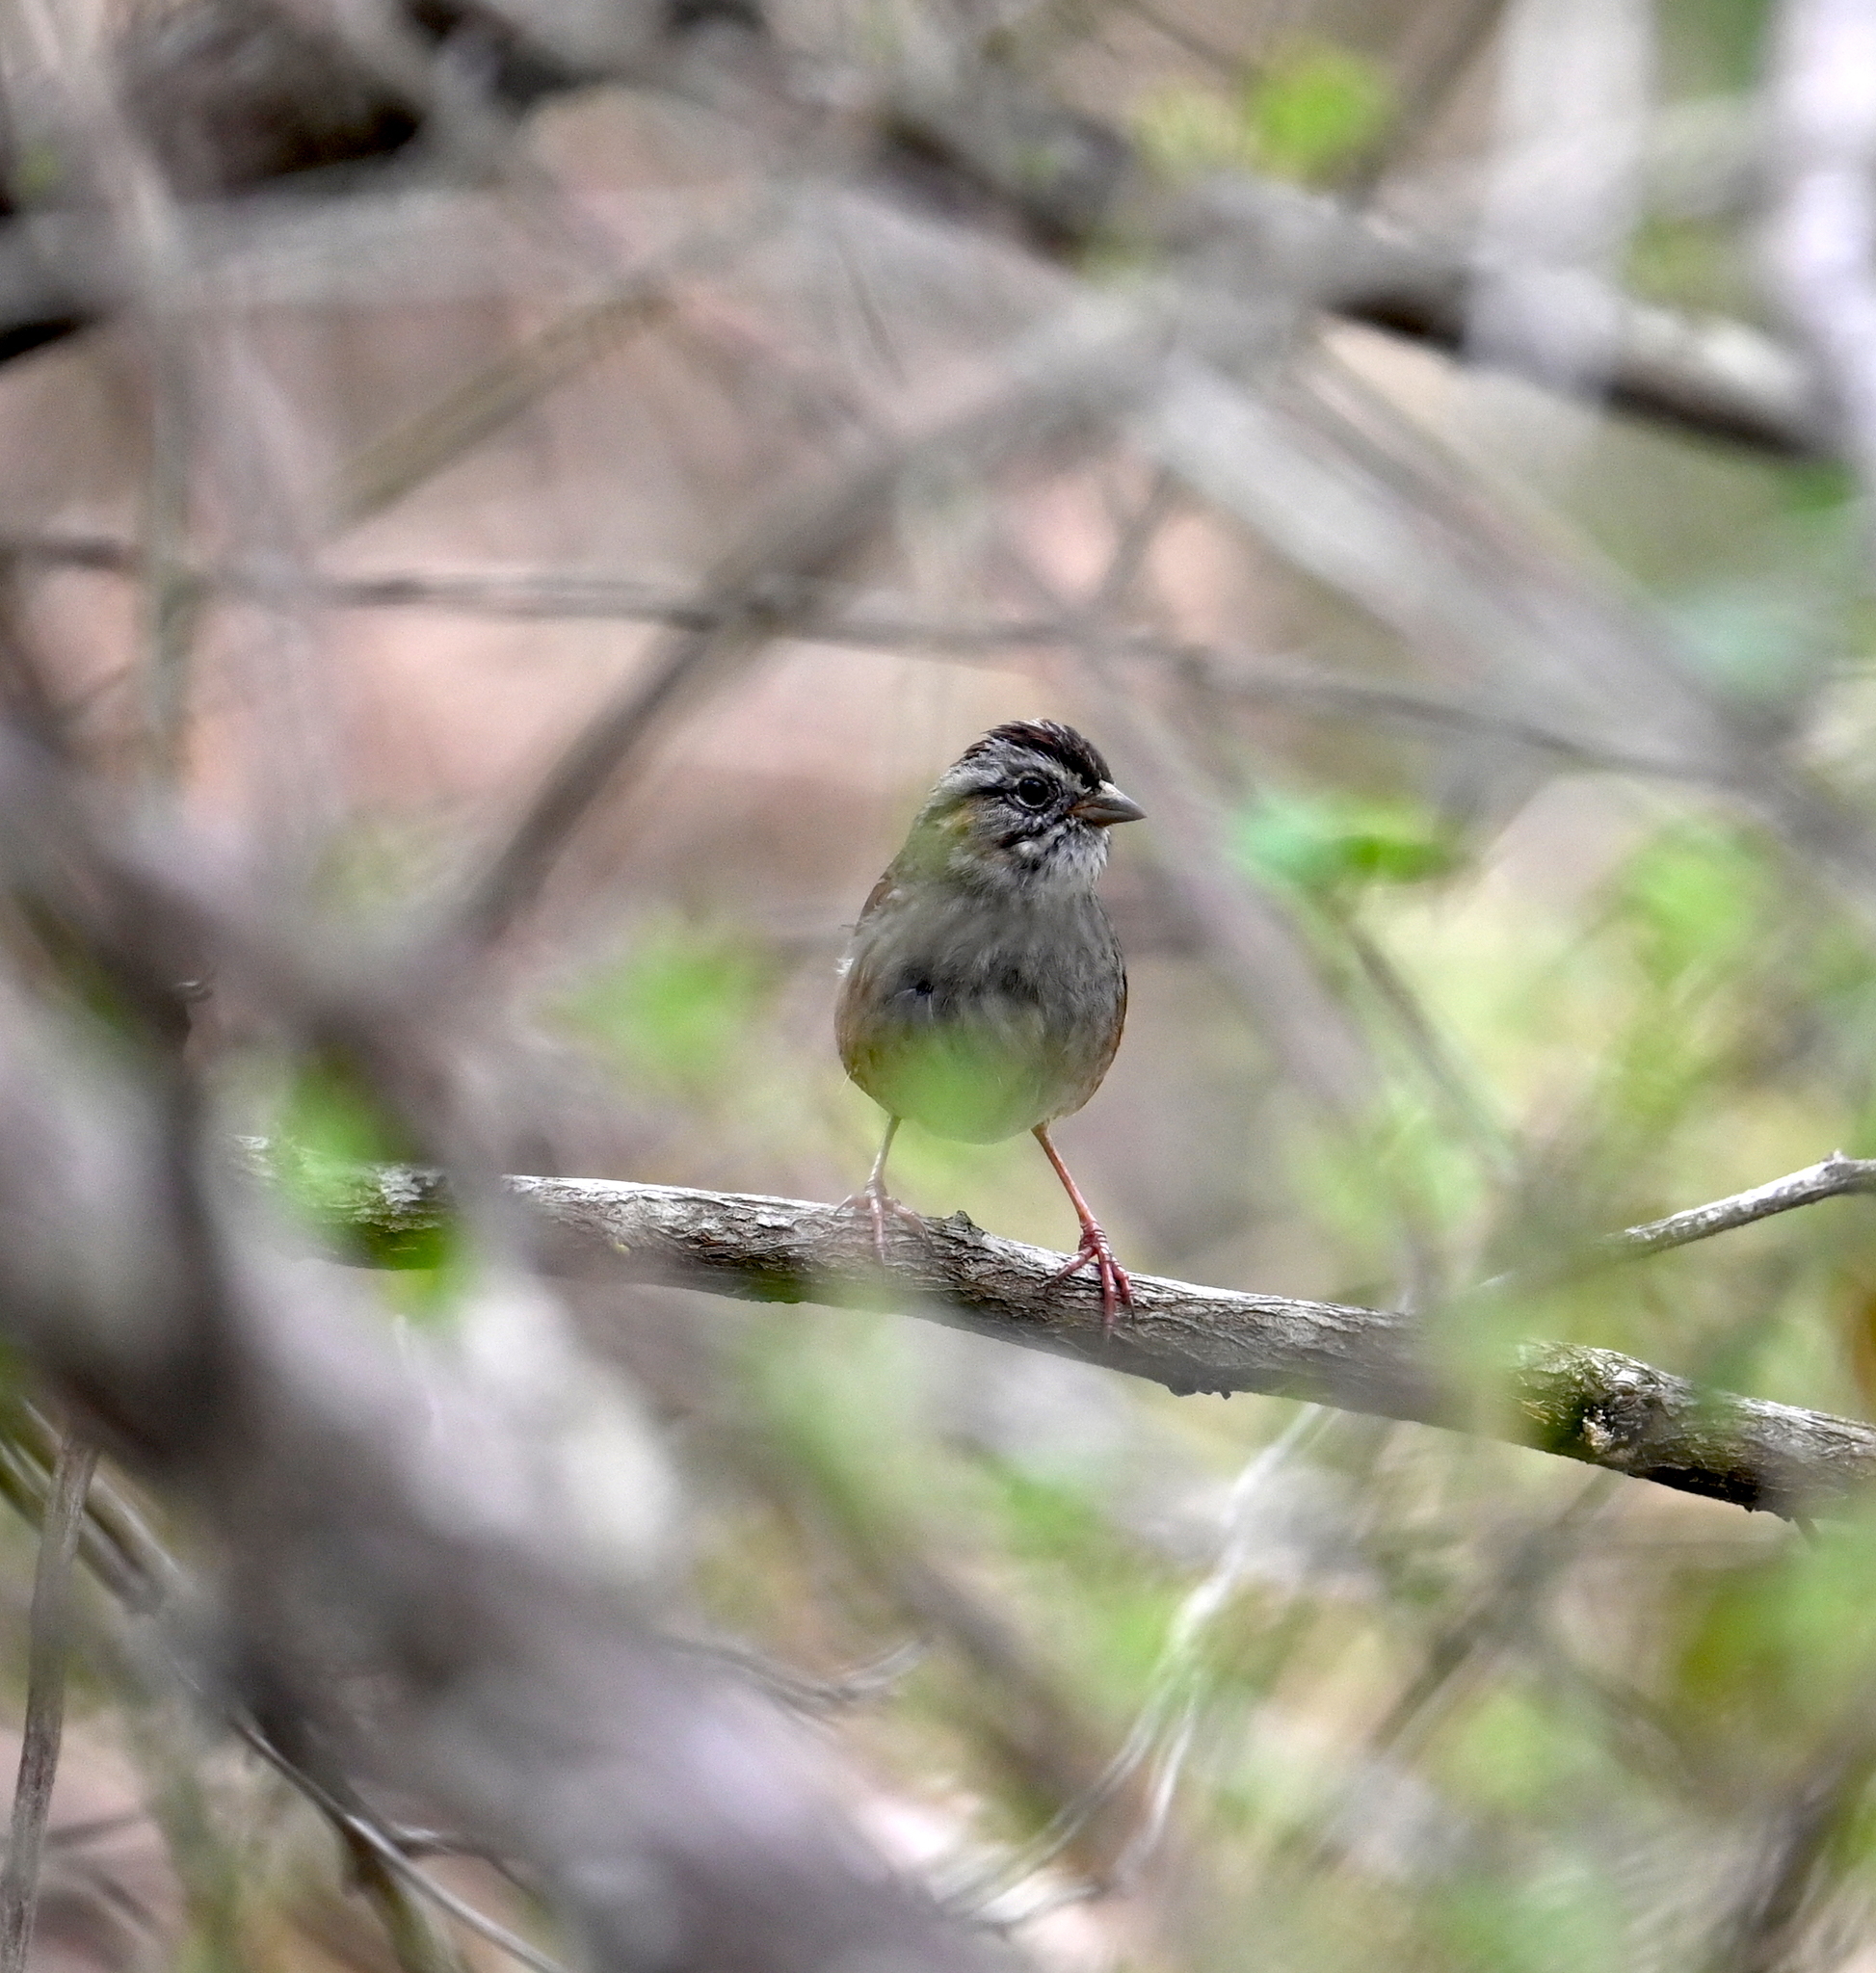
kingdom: Animalia
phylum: Chordata
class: Aves
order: Passeriformes
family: Passerellidae
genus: Melospiza
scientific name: Melospiza georgiana
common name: Swamp sparrow
